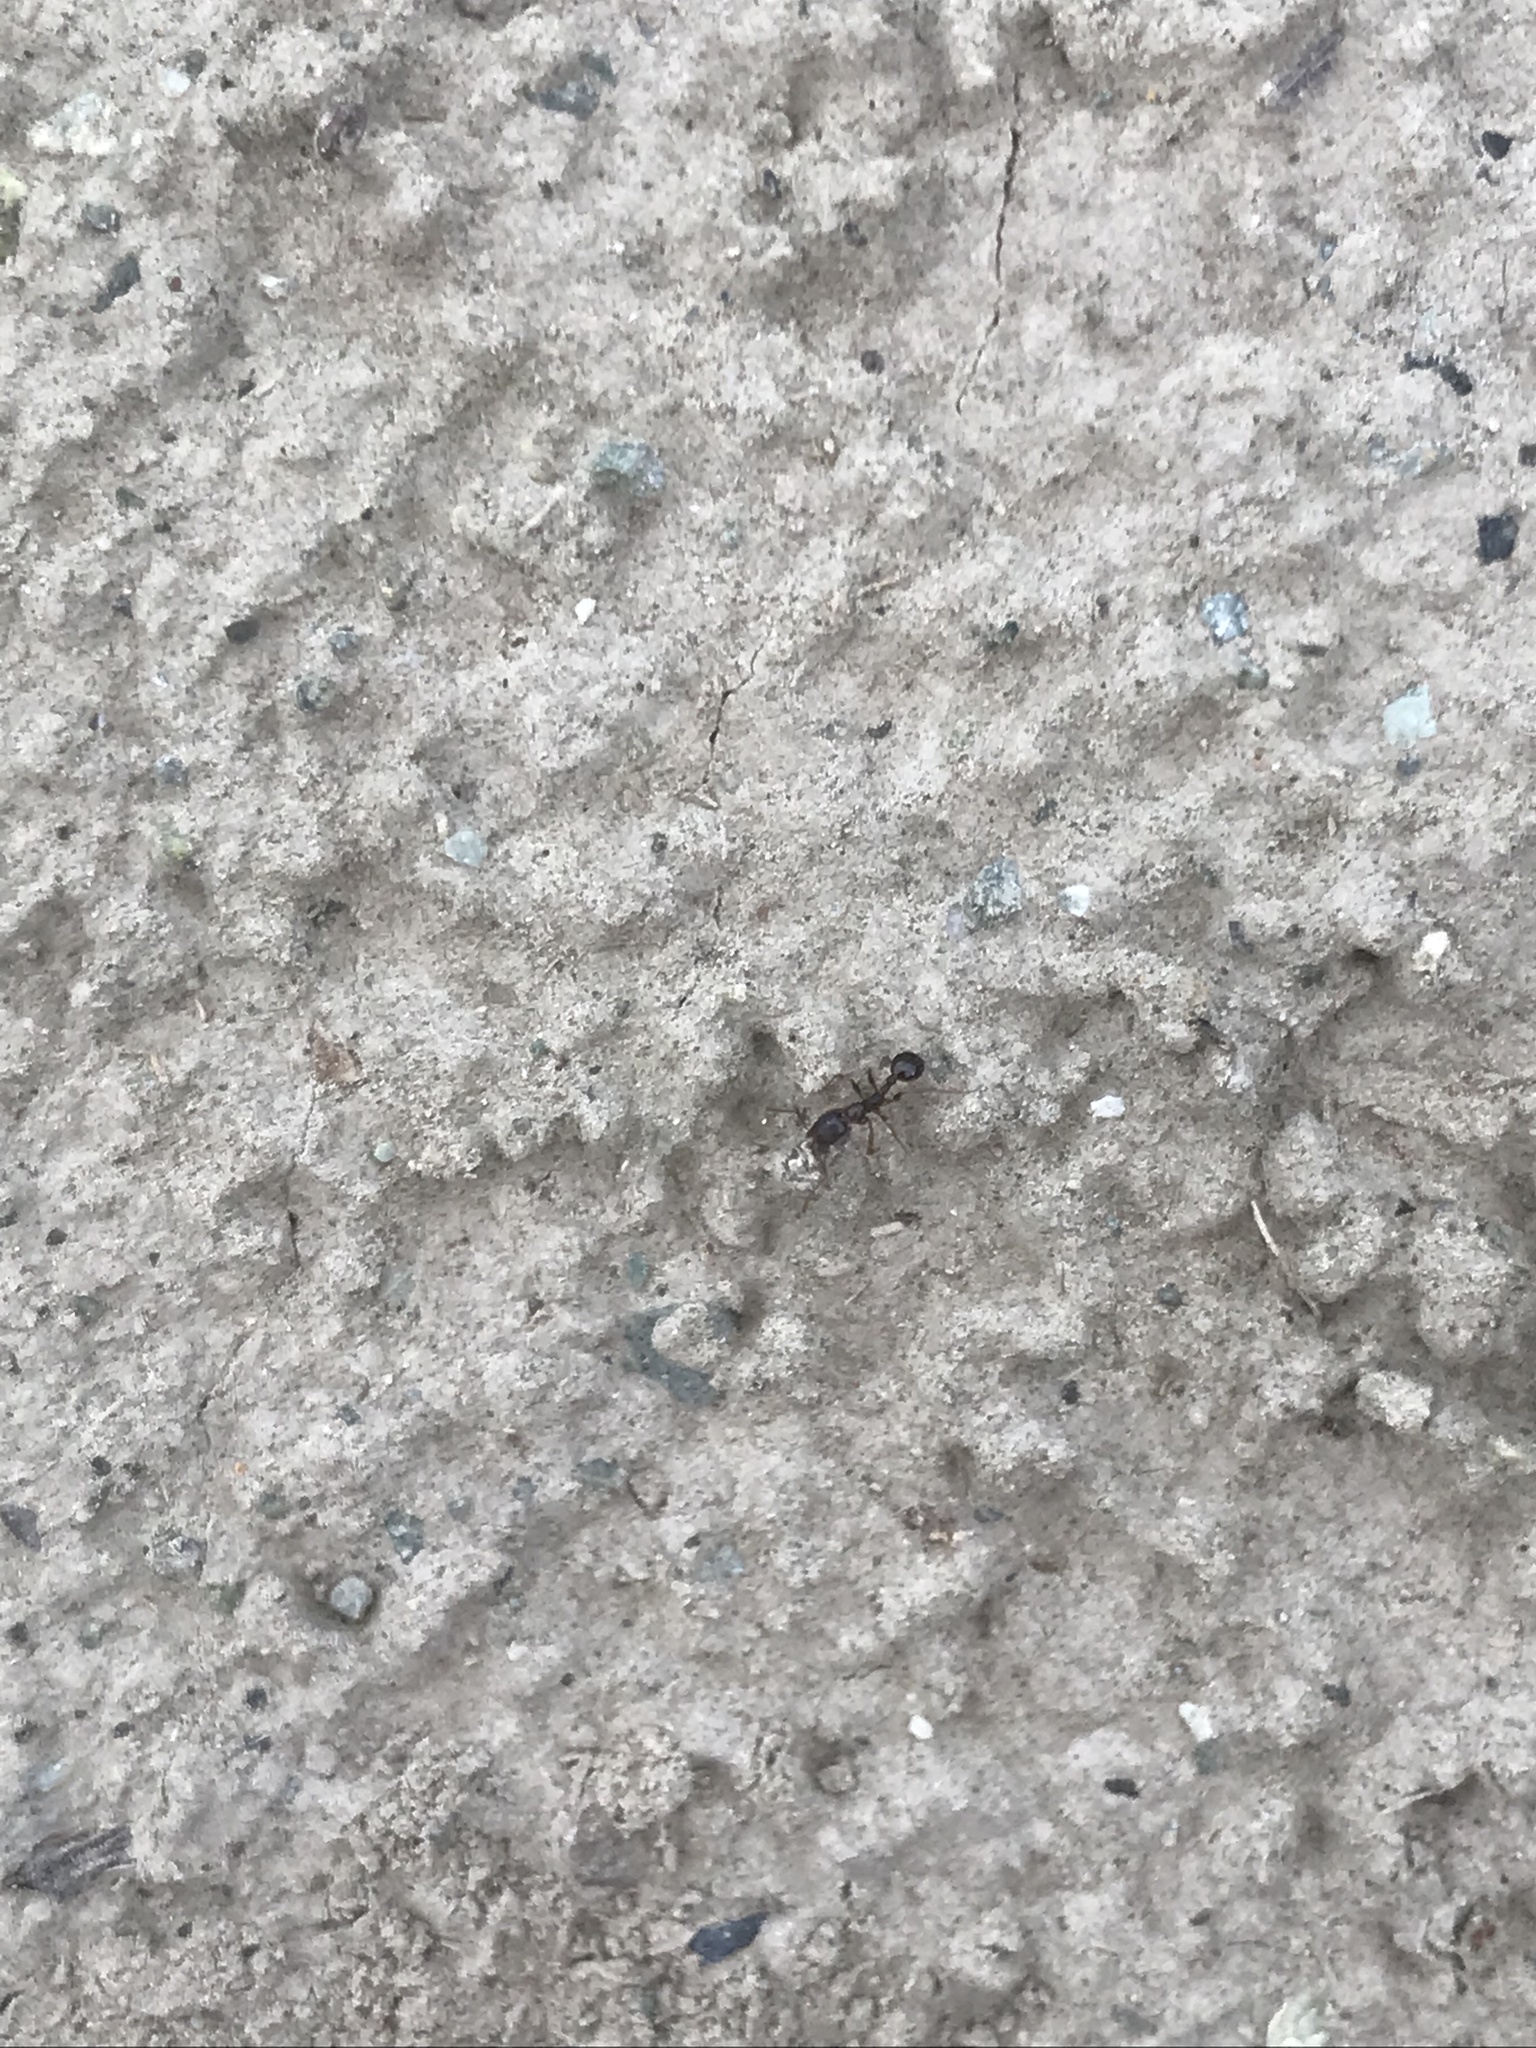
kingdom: Animalia
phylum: Arthropoda
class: Insecta
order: Hymenoptera
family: Formicidae
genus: Aphaenogaster
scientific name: Aphaenogaster occidentalis
